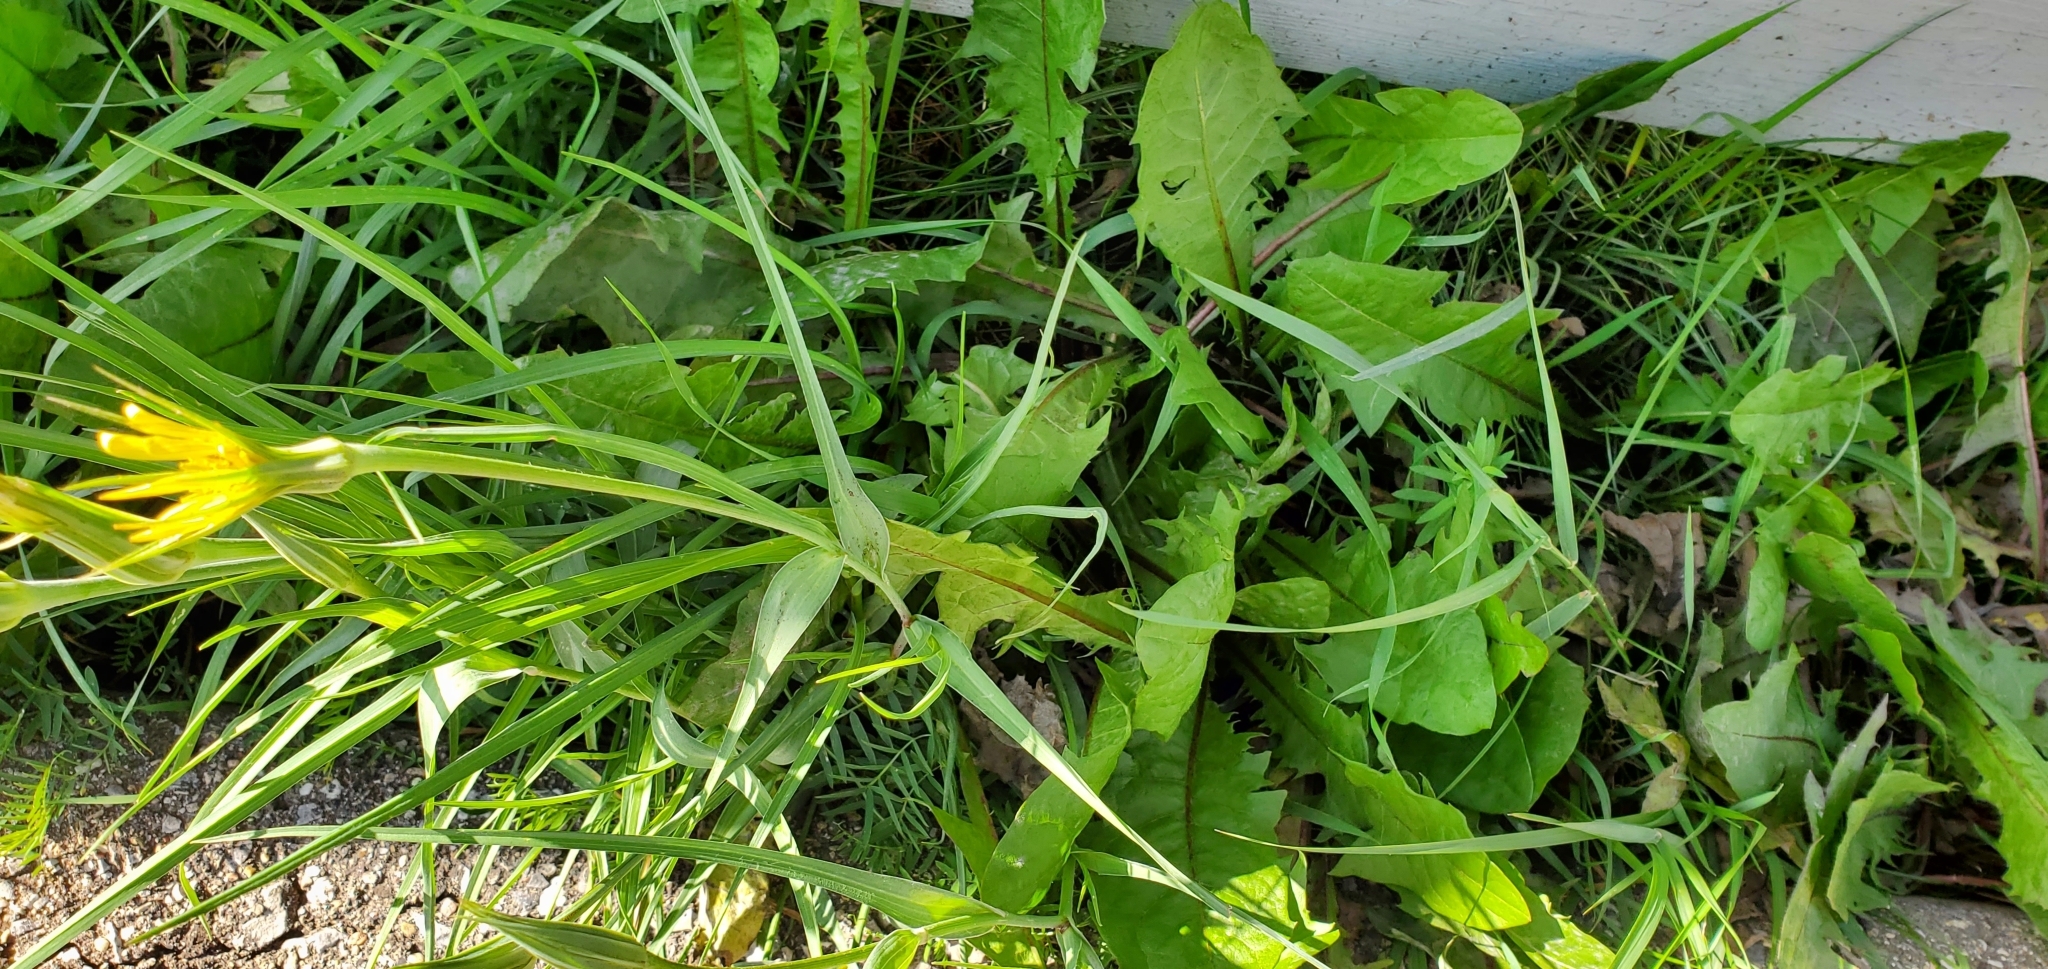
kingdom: Plantae
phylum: Tracheophyta
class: Magnoliopsida
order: Asterales
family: Asteraceae
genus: Tragopogon
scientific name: Tragopogon dubius
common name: Yellow salsify
